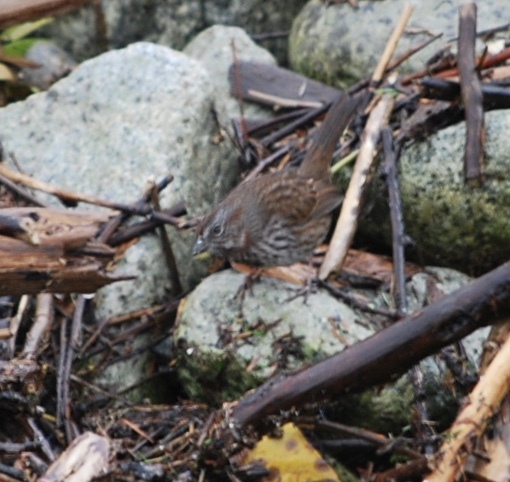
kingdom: Animalia
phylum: Chordata
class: Aves
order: Passeriformes
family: Passerellidae
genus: Melospiza
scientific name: Melospiza melodia
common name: Song sparrow
